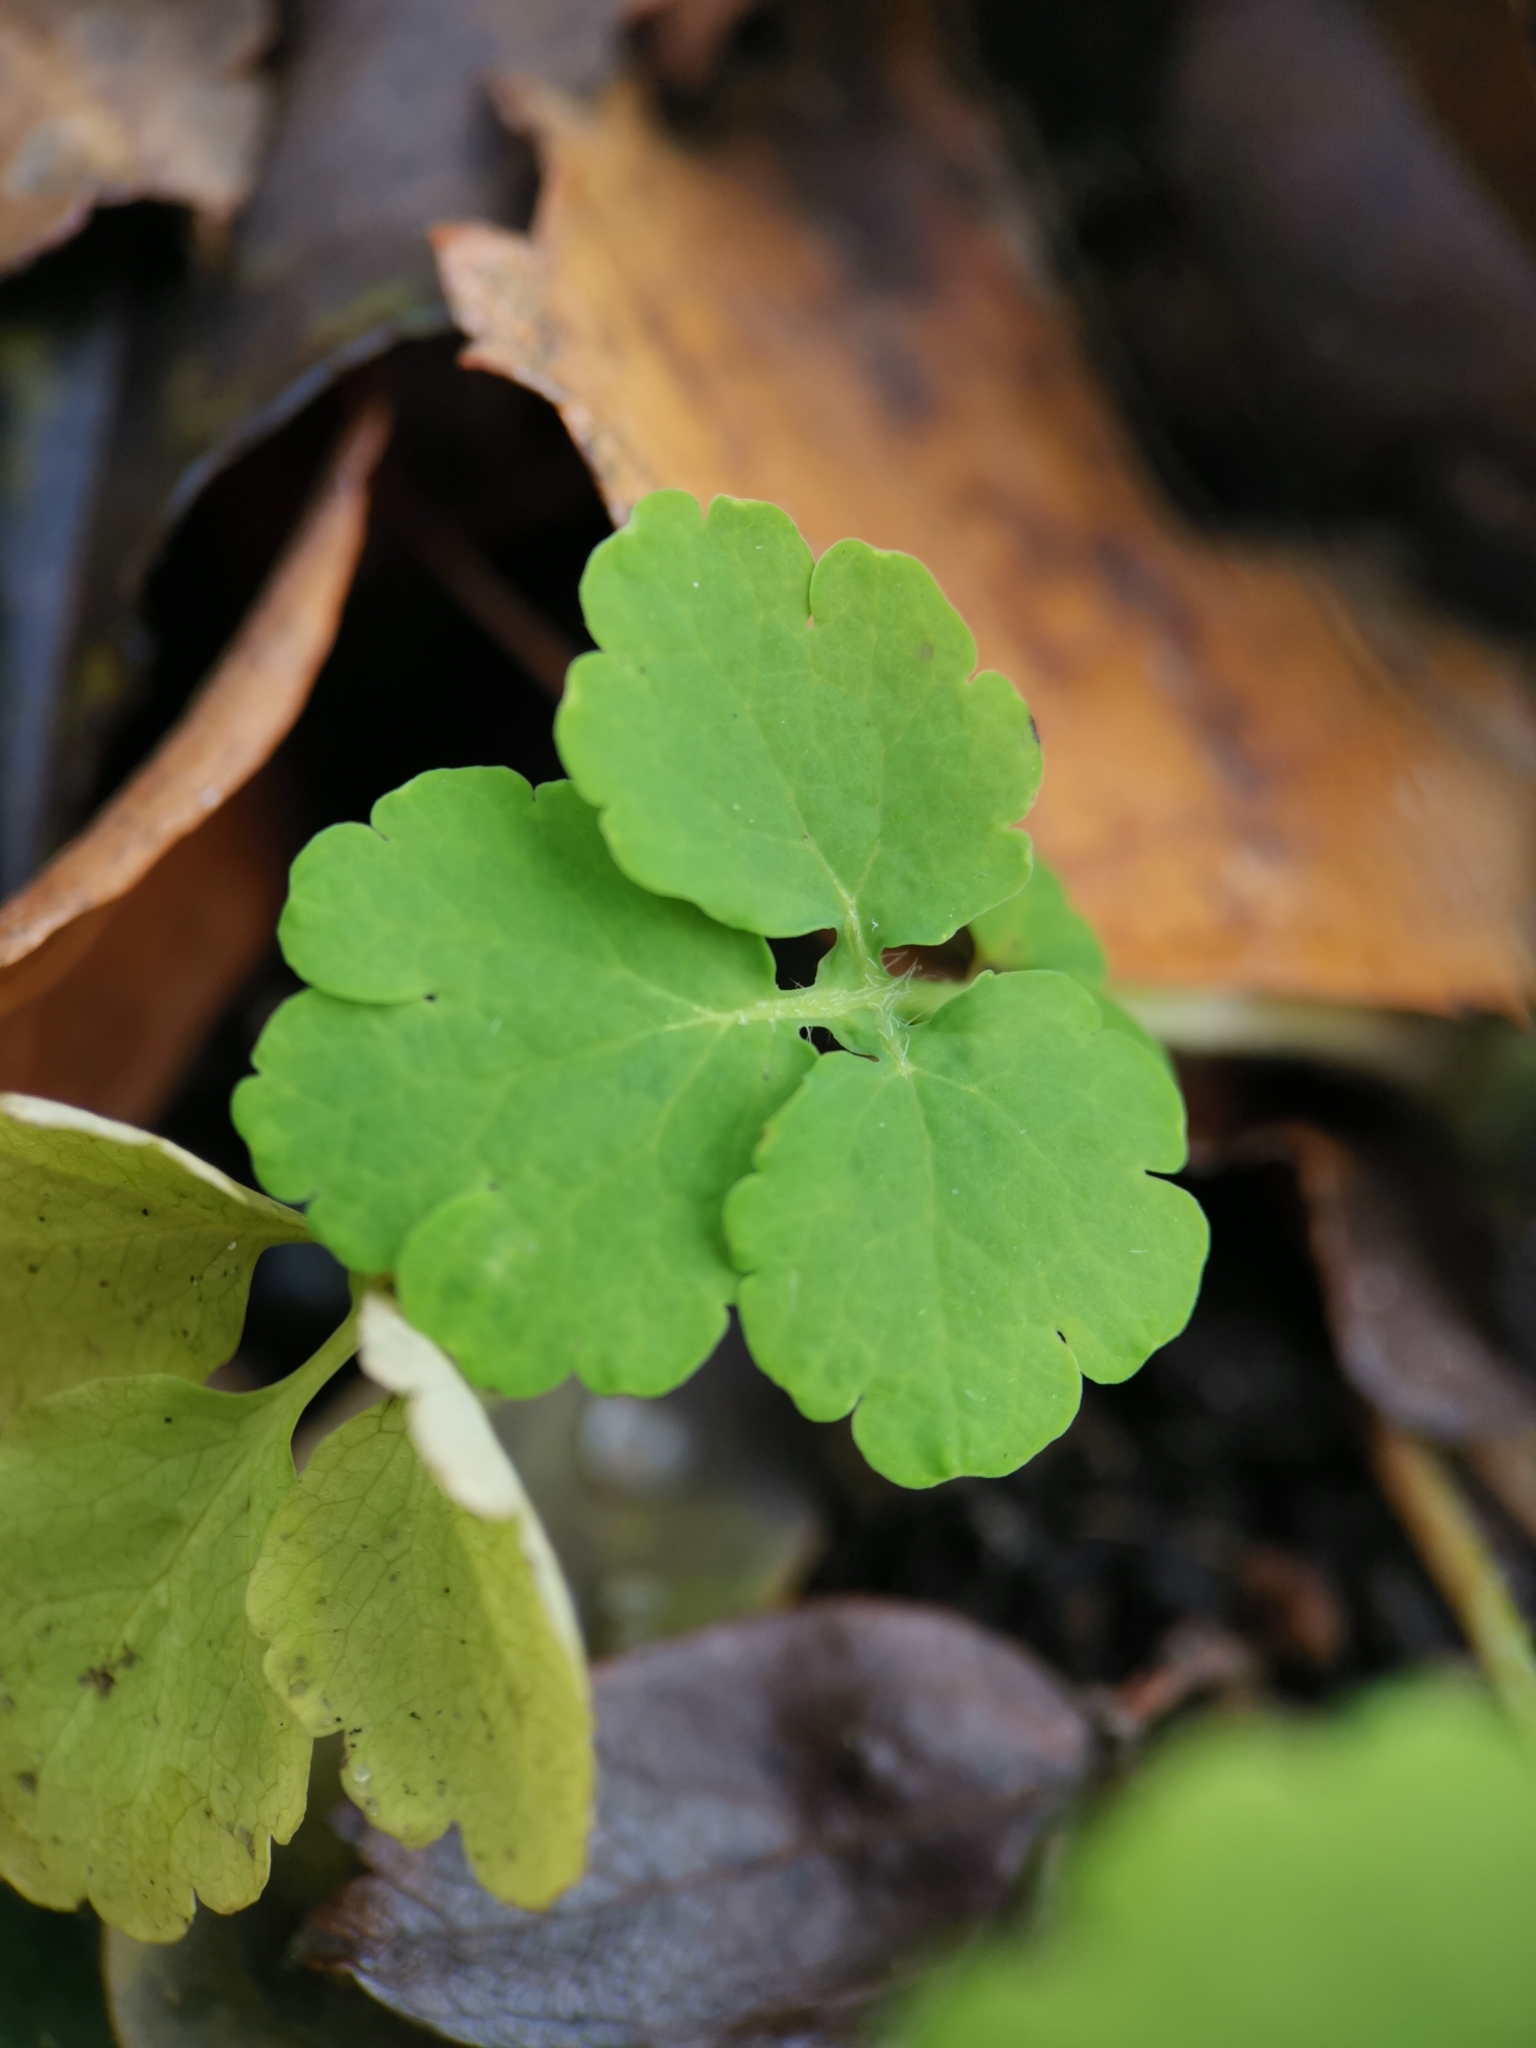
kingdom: Plantae
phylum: Tracheophyta
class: Magnoliopsida
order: Ranunculales
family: Papaveraceae
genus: Chelidonium
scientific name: Chelidonium majus
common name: Greater celandine
